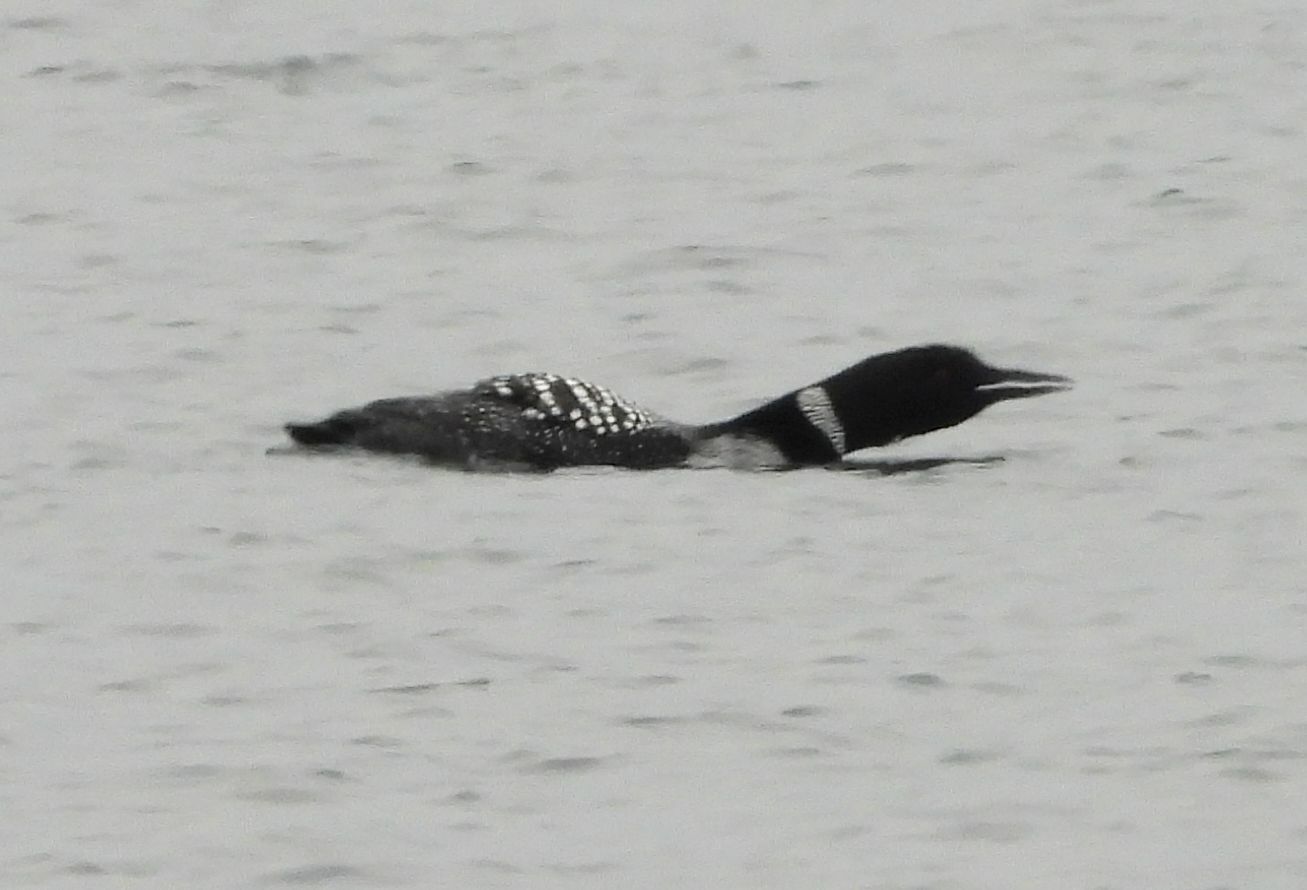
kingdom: Animalia
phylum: Chordata
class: Aves
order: Gaviiformes
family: Gaviidae
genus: Gavia
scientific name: Gavia immer
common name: Common loon
